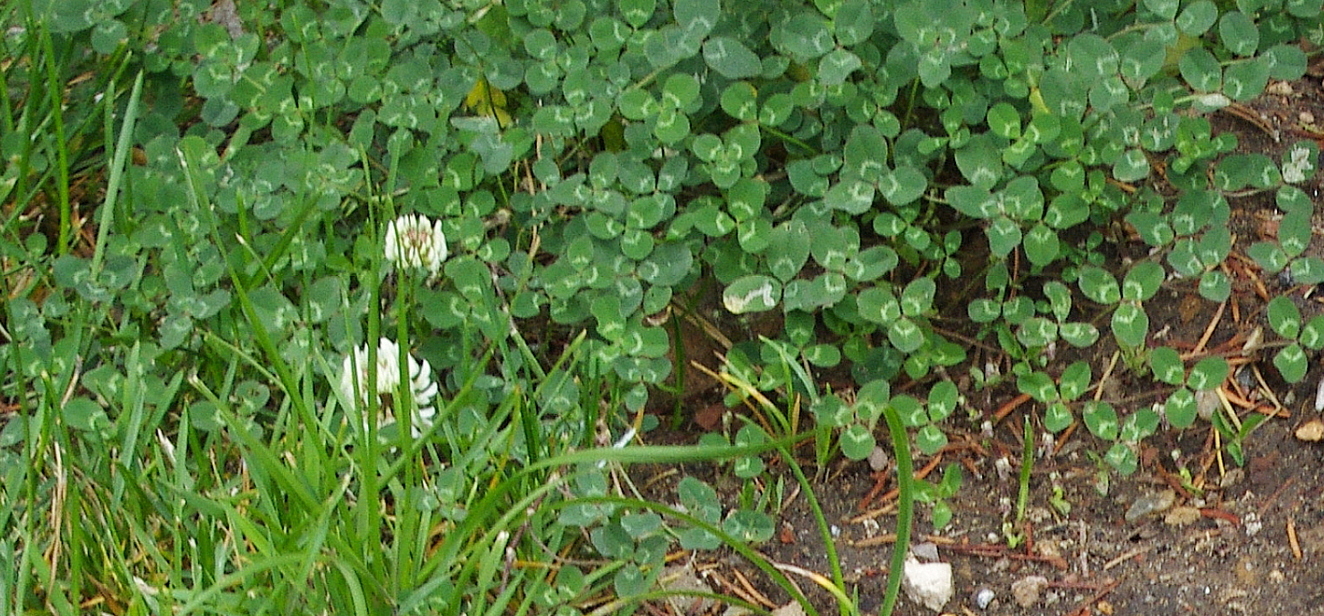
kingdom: Plantae
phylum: Tracheophyta
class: Magnoliopsida
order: Fabales
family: Fabaceae
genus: Trifolium
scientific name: Trifolium repens
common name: White clover
